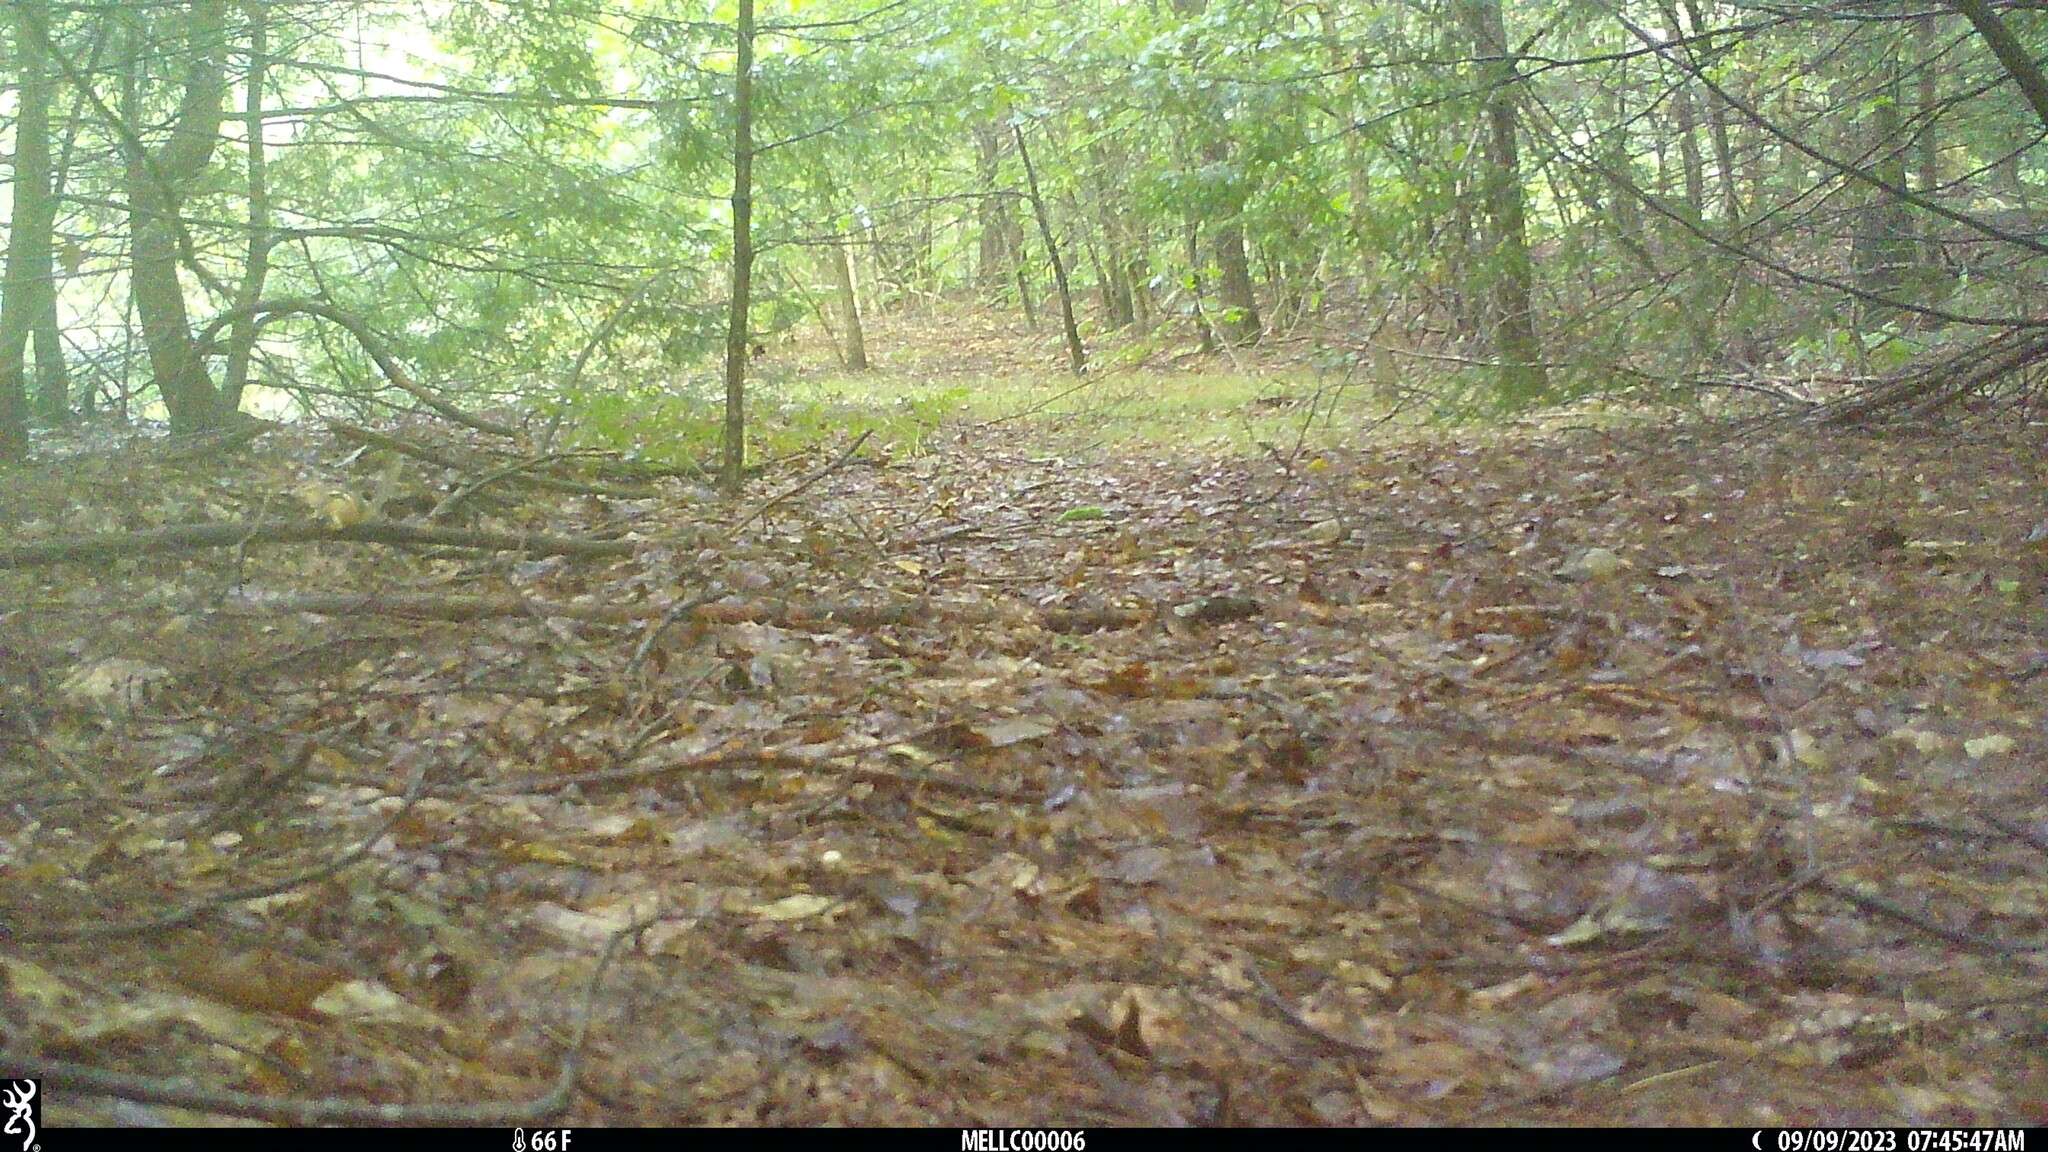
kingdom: Animalia
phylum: Chordata
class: Mammalia
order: Rodentia
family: Sciuridae
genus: Tamias
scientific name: Tamias striatus
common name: Eastern chipmunk
